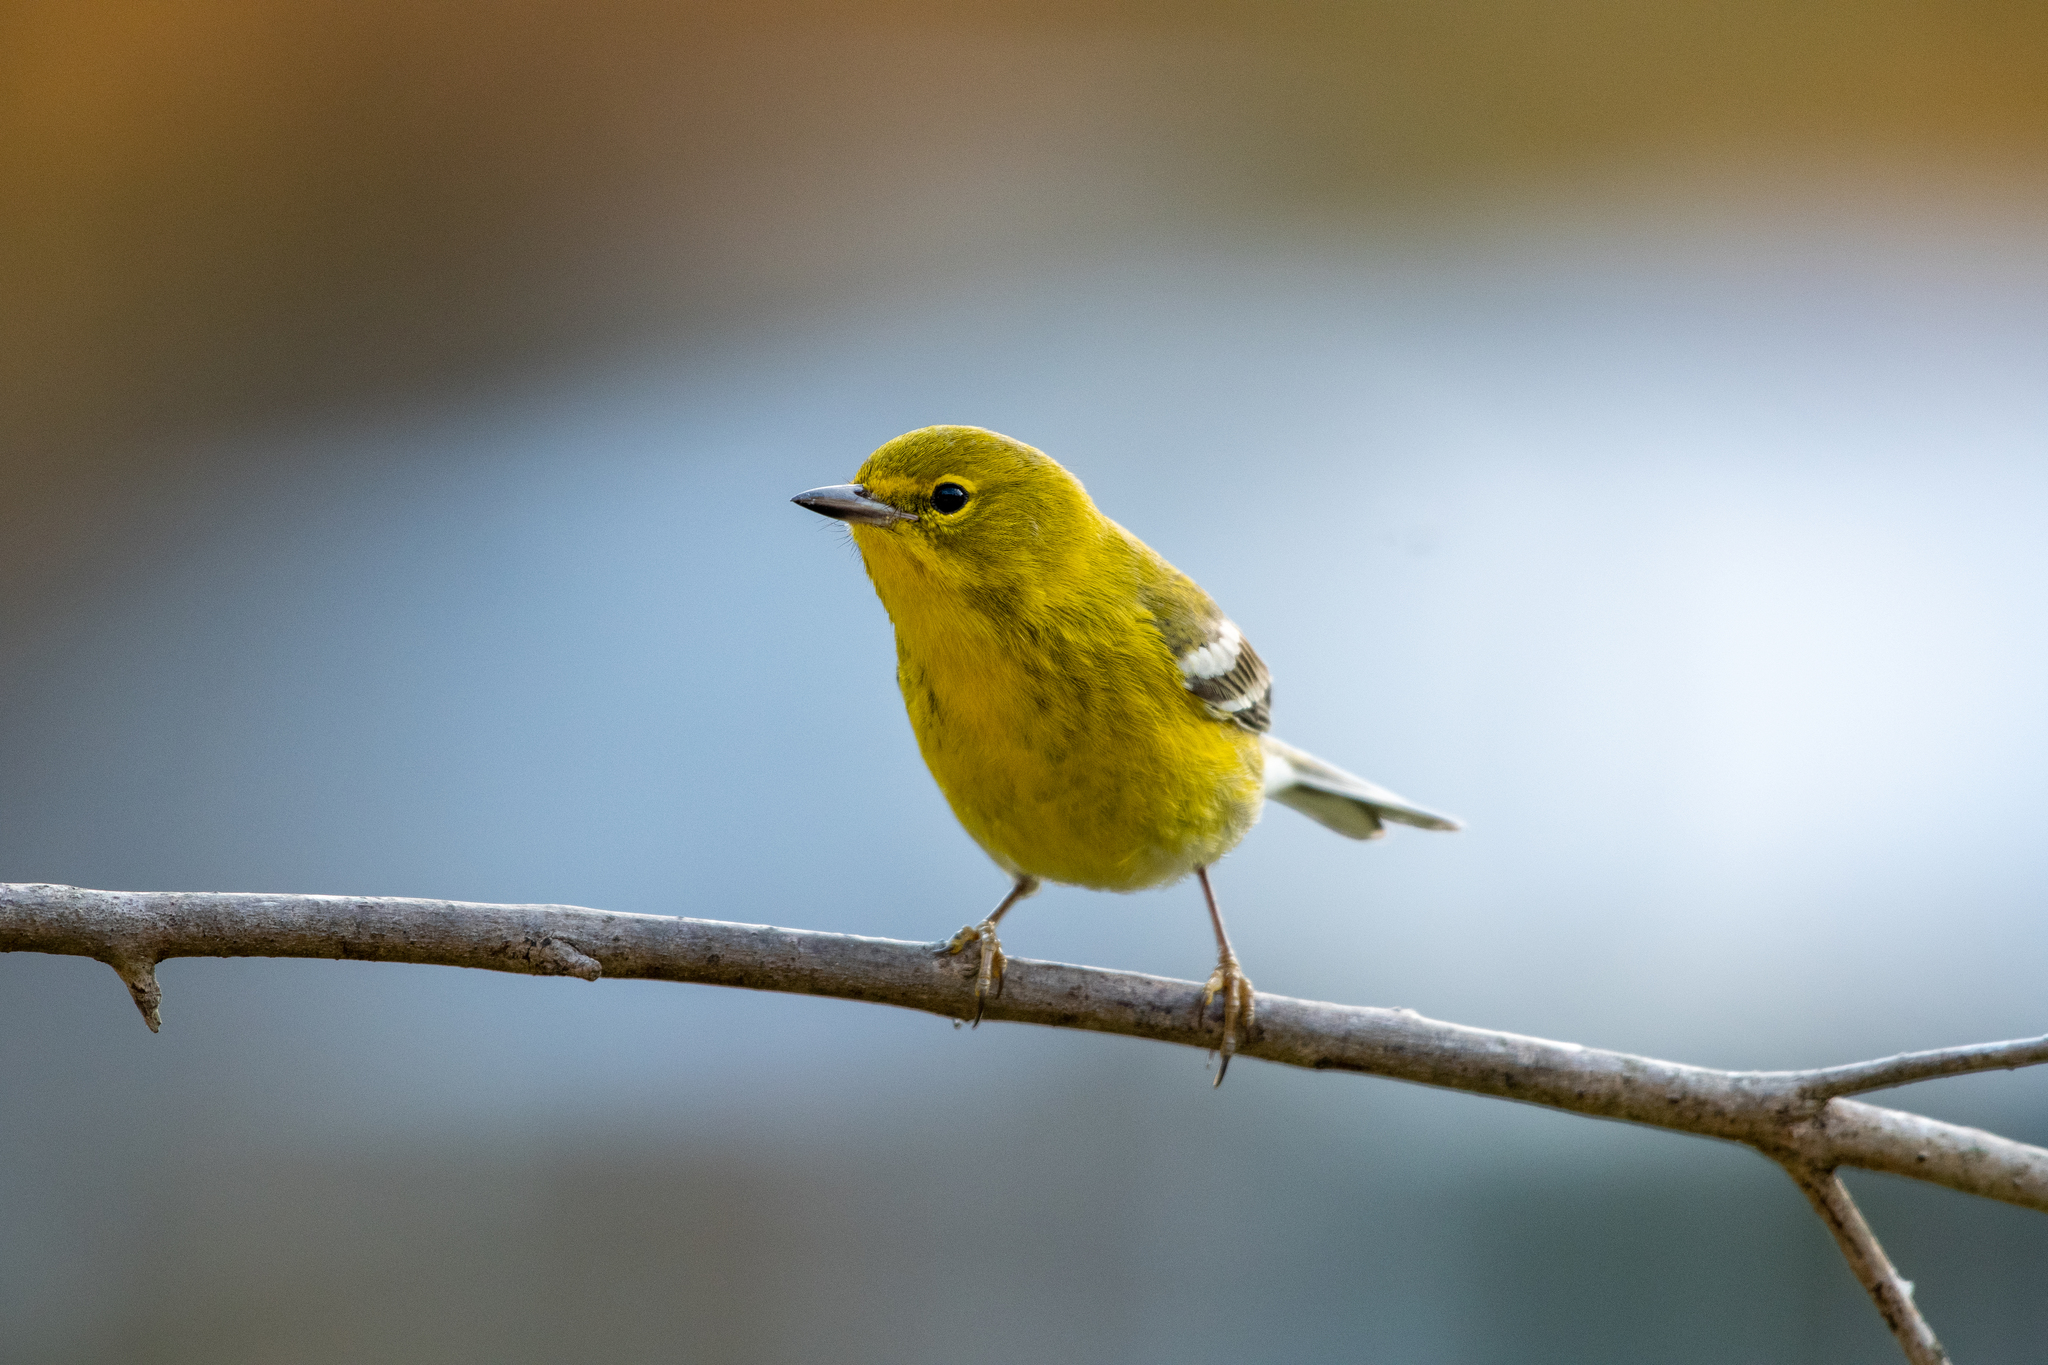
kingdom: Animalia
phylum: Chordata
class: Aves
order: Passeriformes
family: Parulidae
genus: Setophaga
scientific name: Setophaga pinus
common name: Pine warbler
